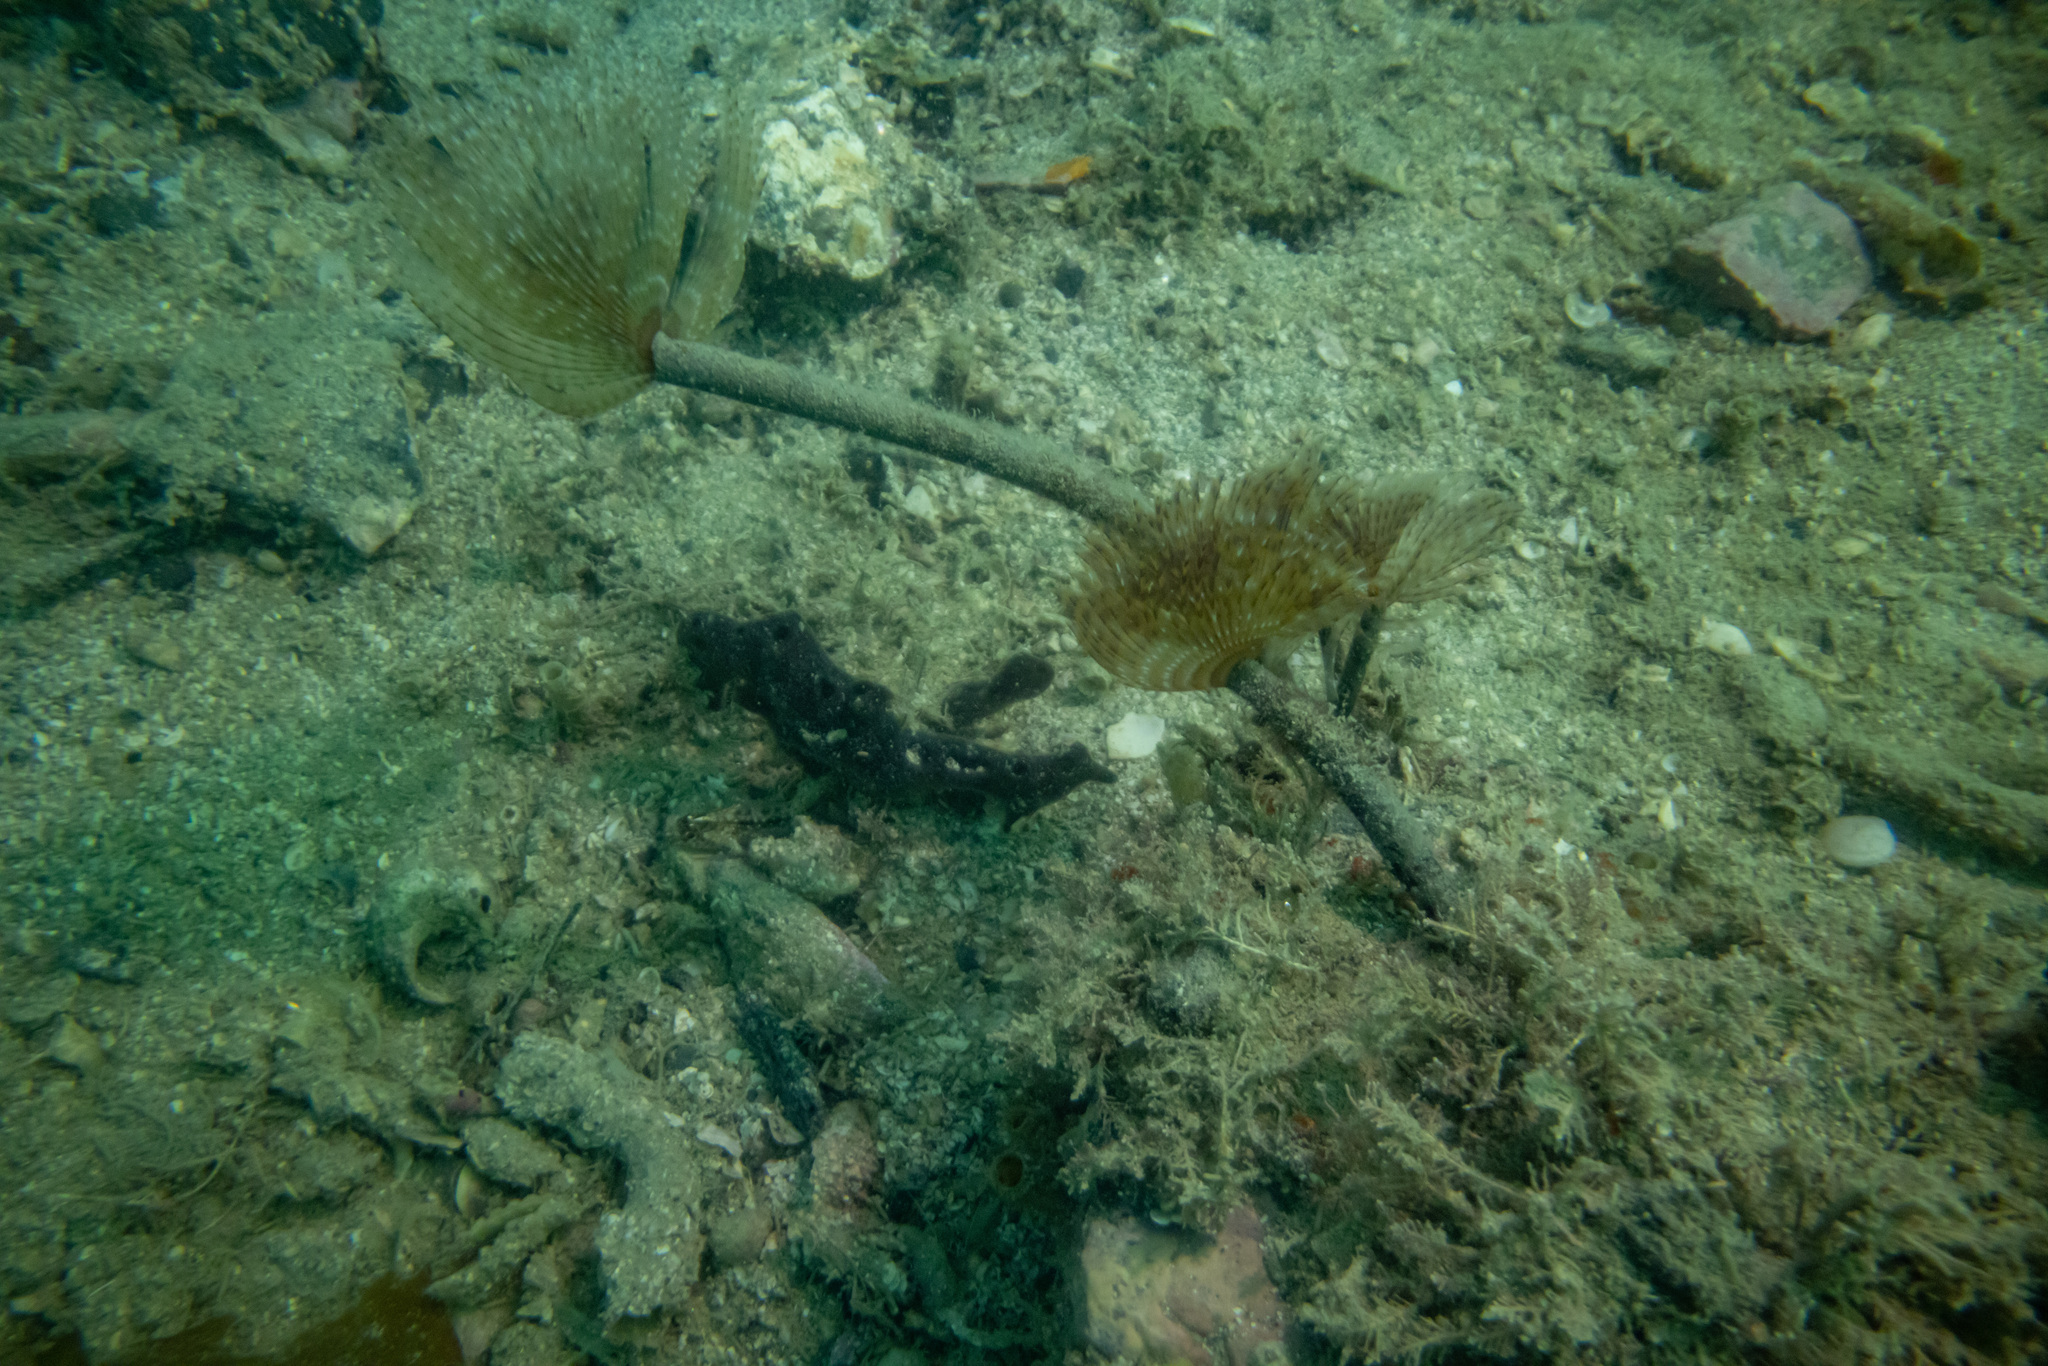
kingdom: Animalia
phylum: Annelida
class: Polychaeta
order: Sabellida
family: Sabellidae
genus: Sabella
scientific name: Sabella spallanzanii
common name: Feather duster worm
